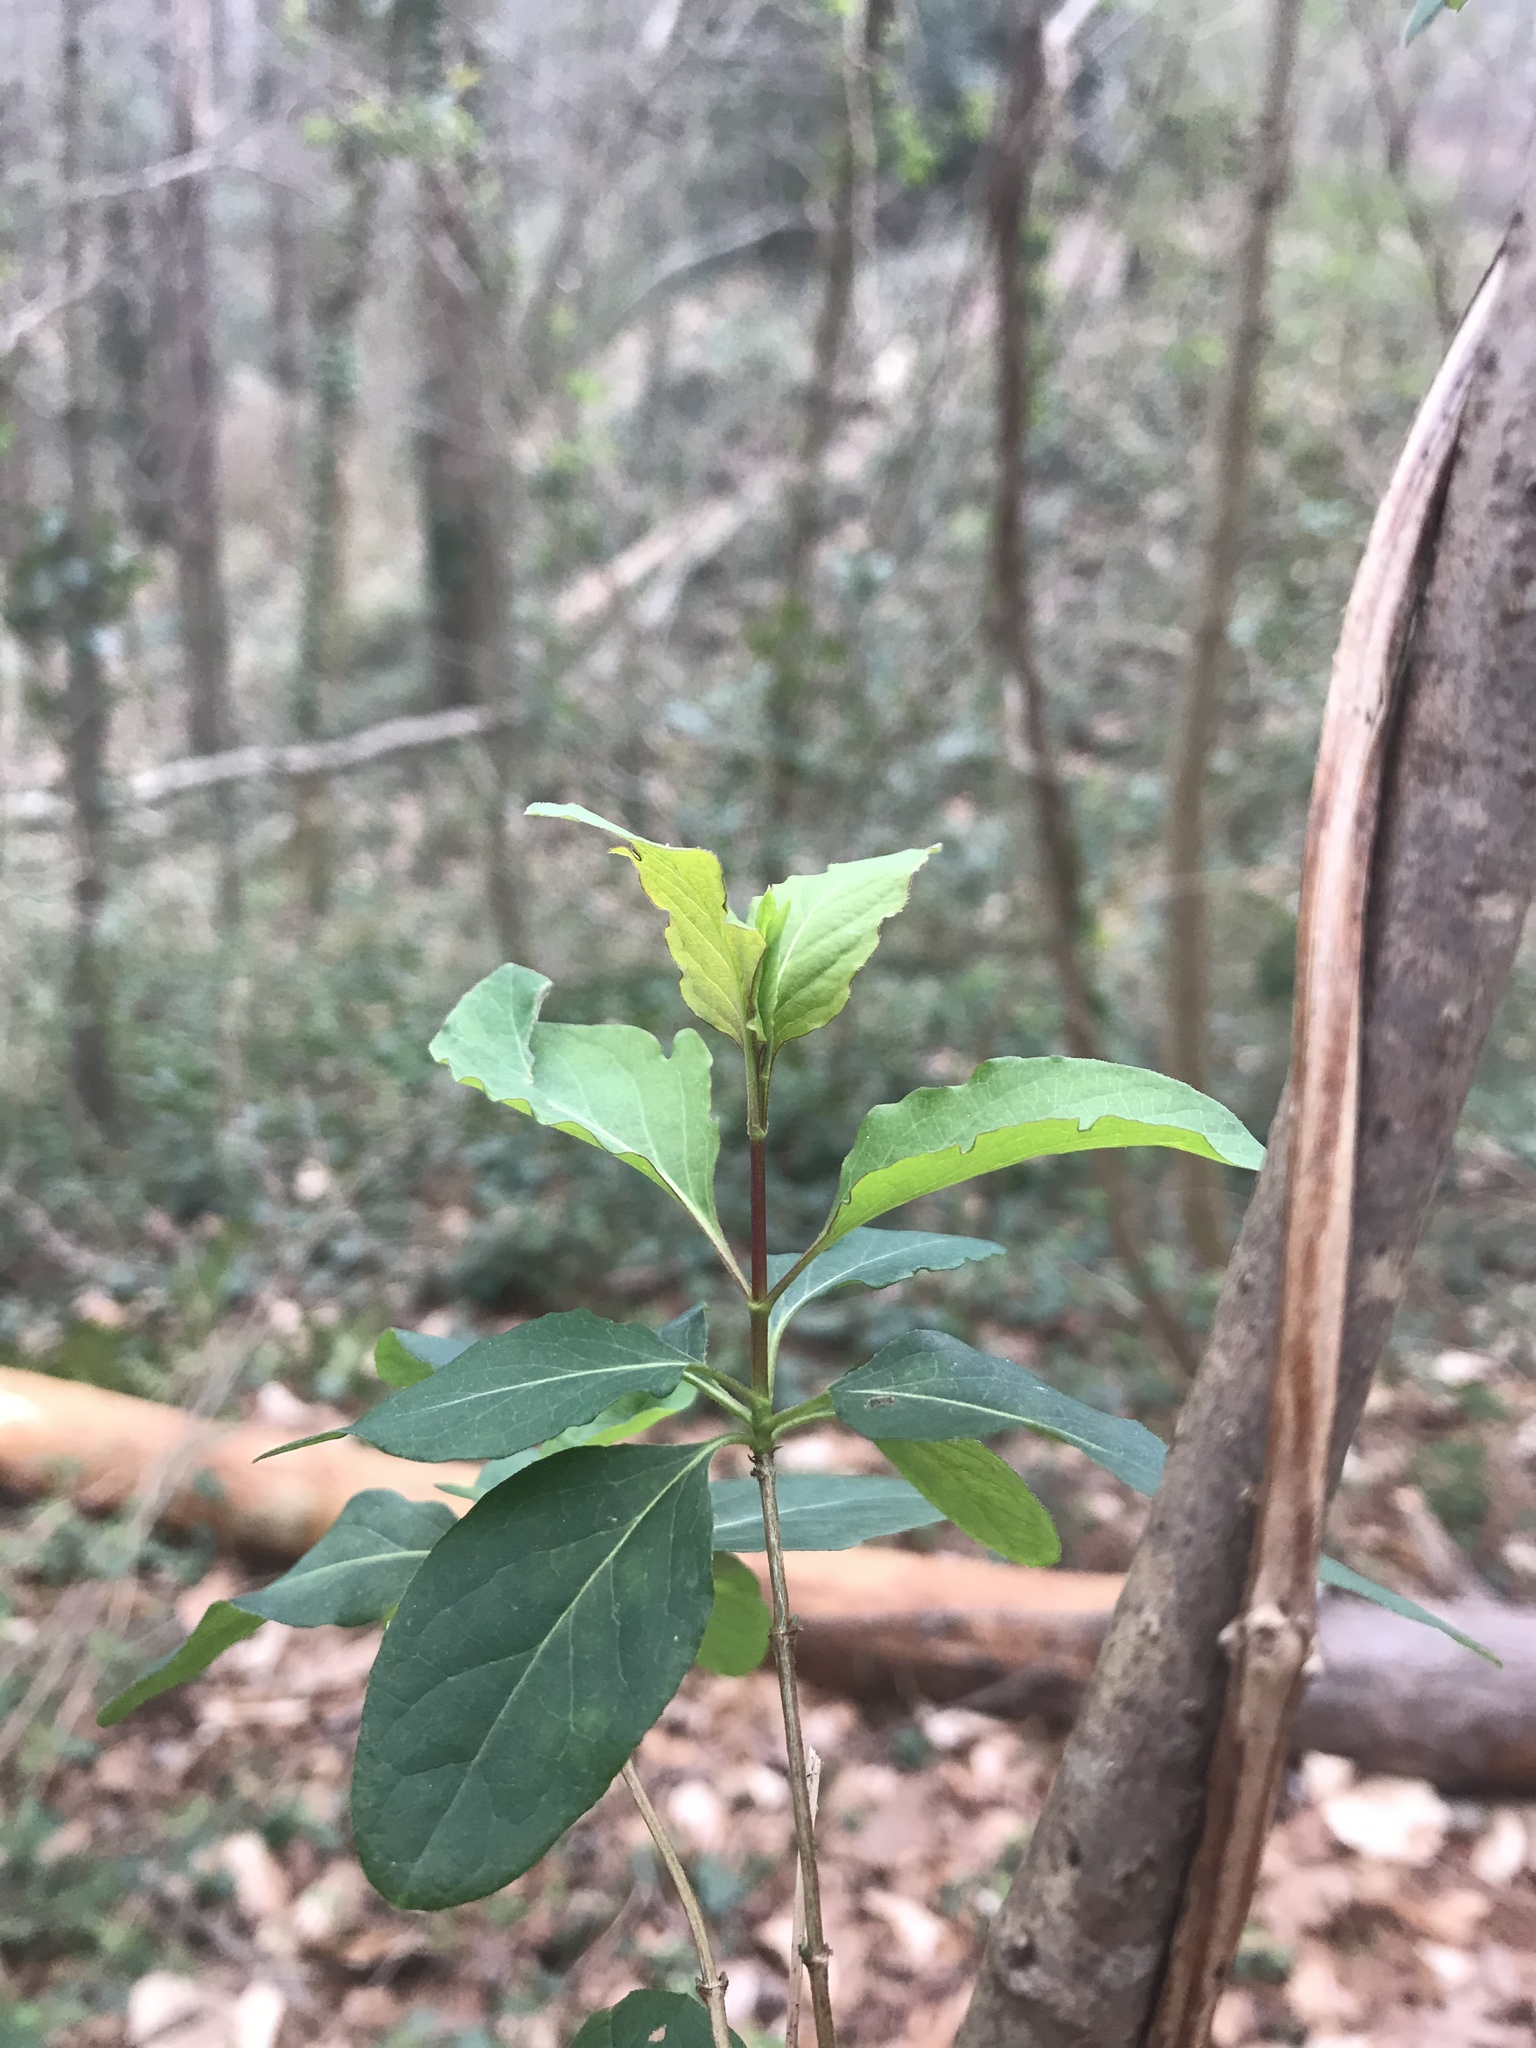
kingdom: Plantae
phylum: Tracheophyta
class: Magnoliopsida
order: Dipsacales
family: Caprifoliaceae
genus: Lonicera
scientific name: Lonicera japonica
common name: Japanese honeysuckle
